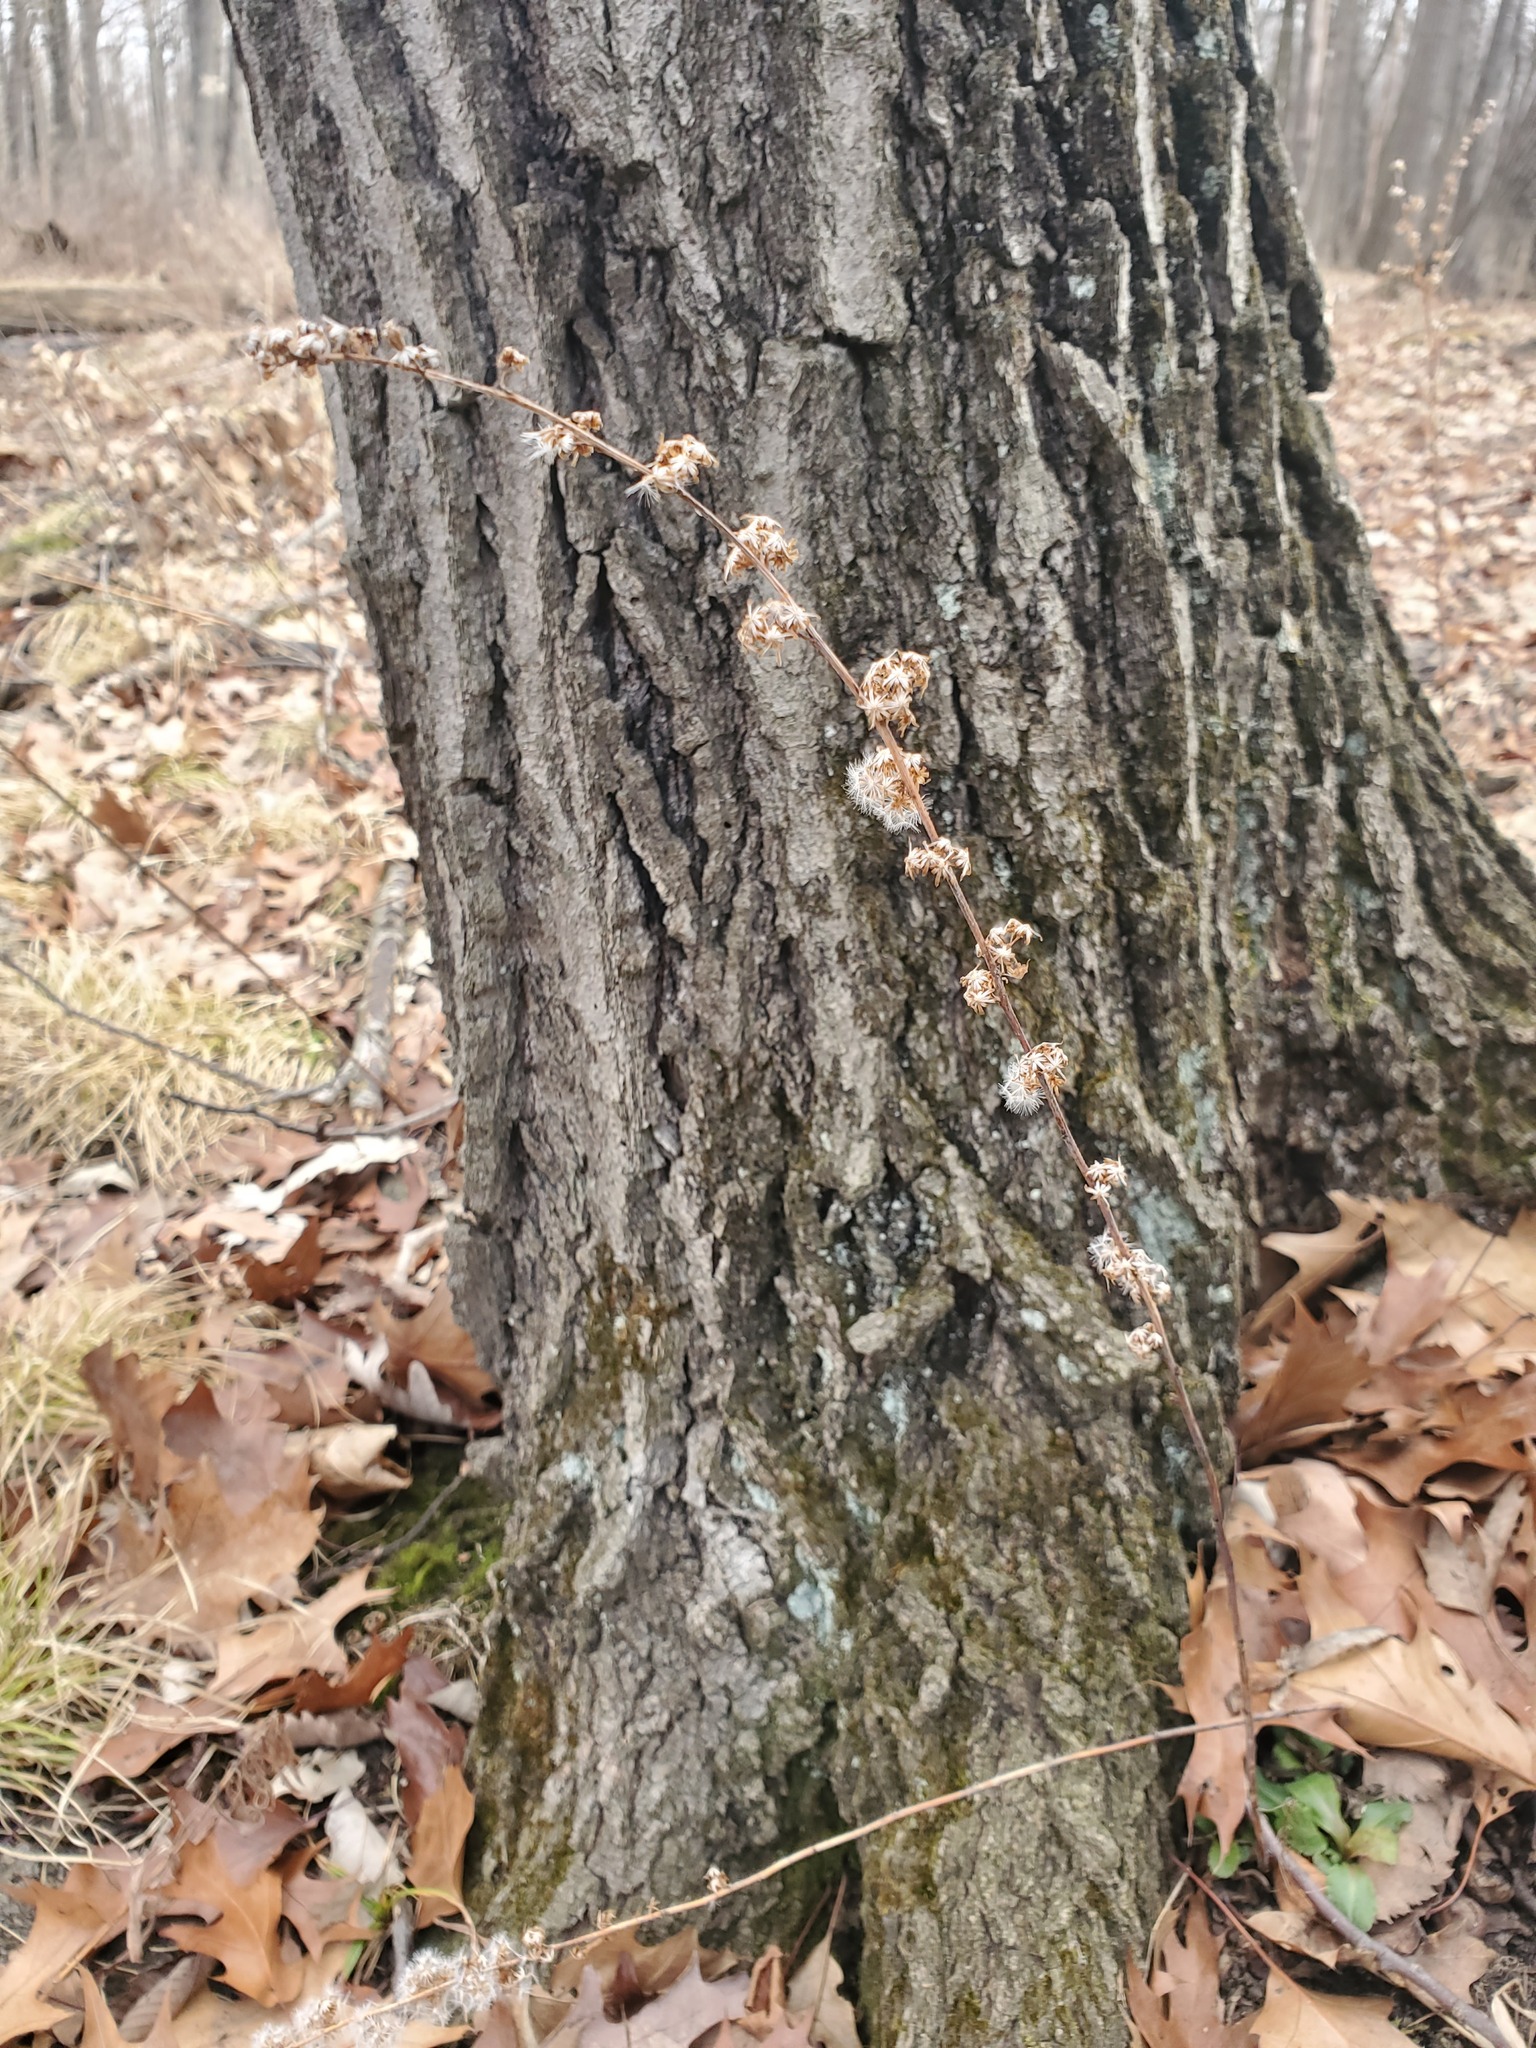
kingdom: Plantae
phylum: Tracheophyta
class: Magnoliopsida
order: Asterales
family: Asteraceae
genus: Solidago
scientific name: Solidago caesia
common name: Woodland goldenrod
